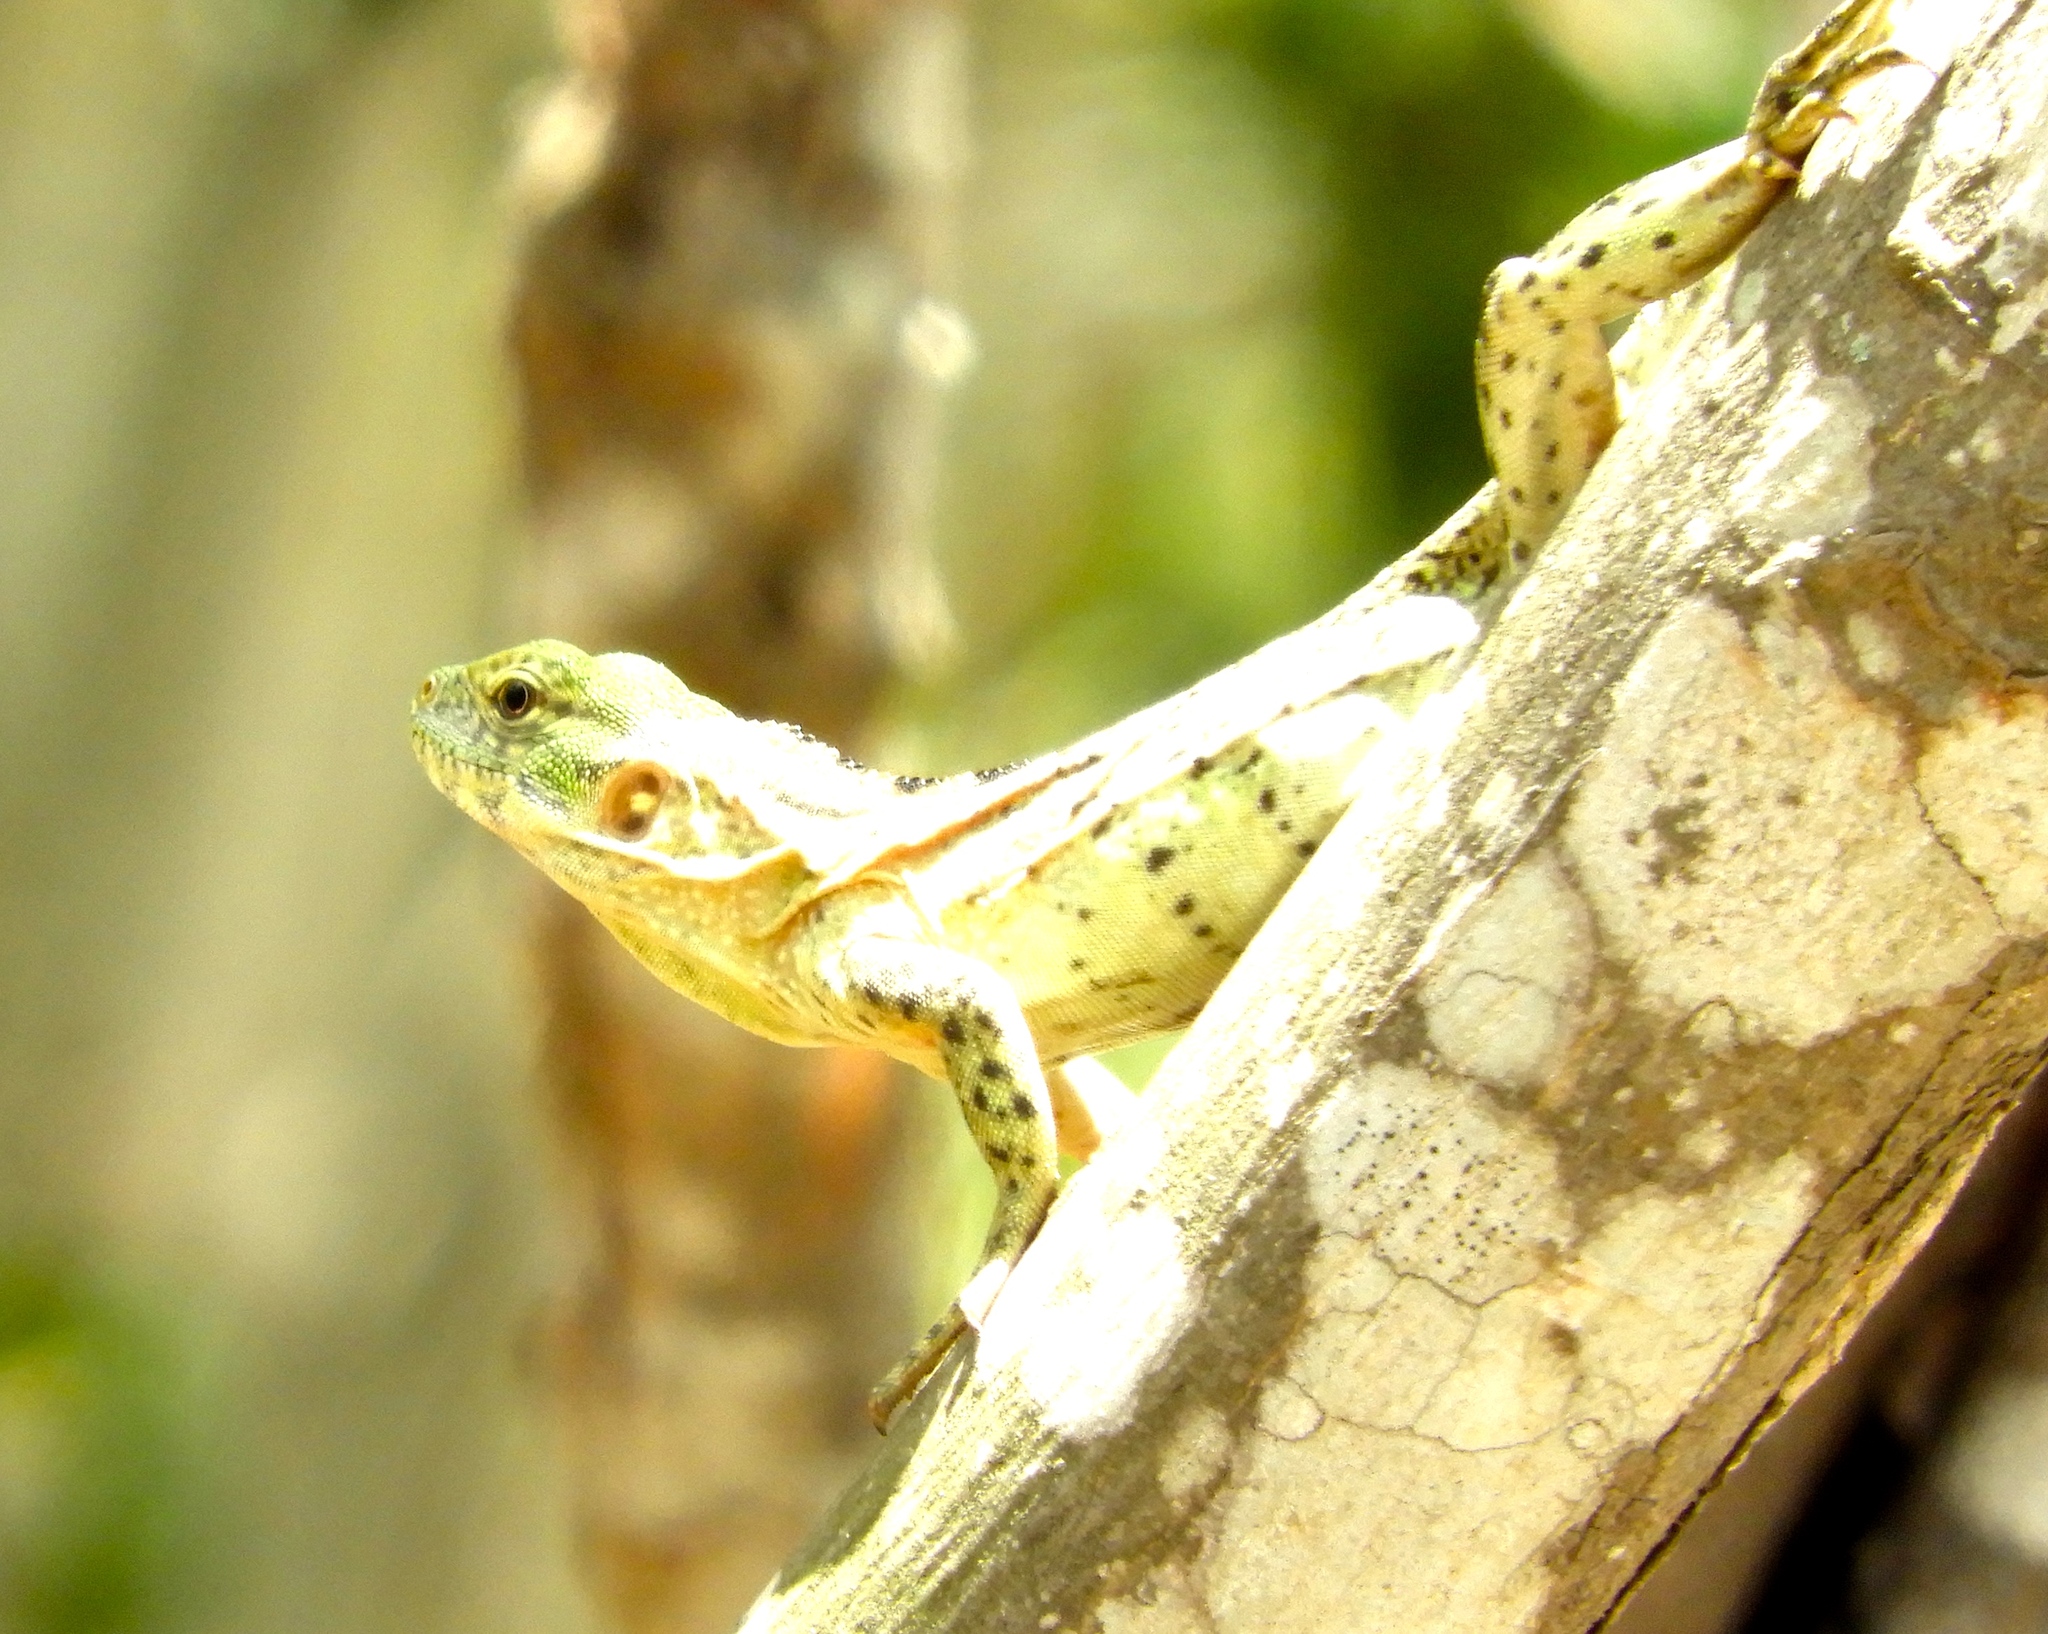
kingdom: Animalia
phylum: Chordata
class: Squamata
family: Iguanidae
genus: Ctenosaura
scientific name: Ctenosaura pectinata
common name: Guerreran spiny-tailed iguana
